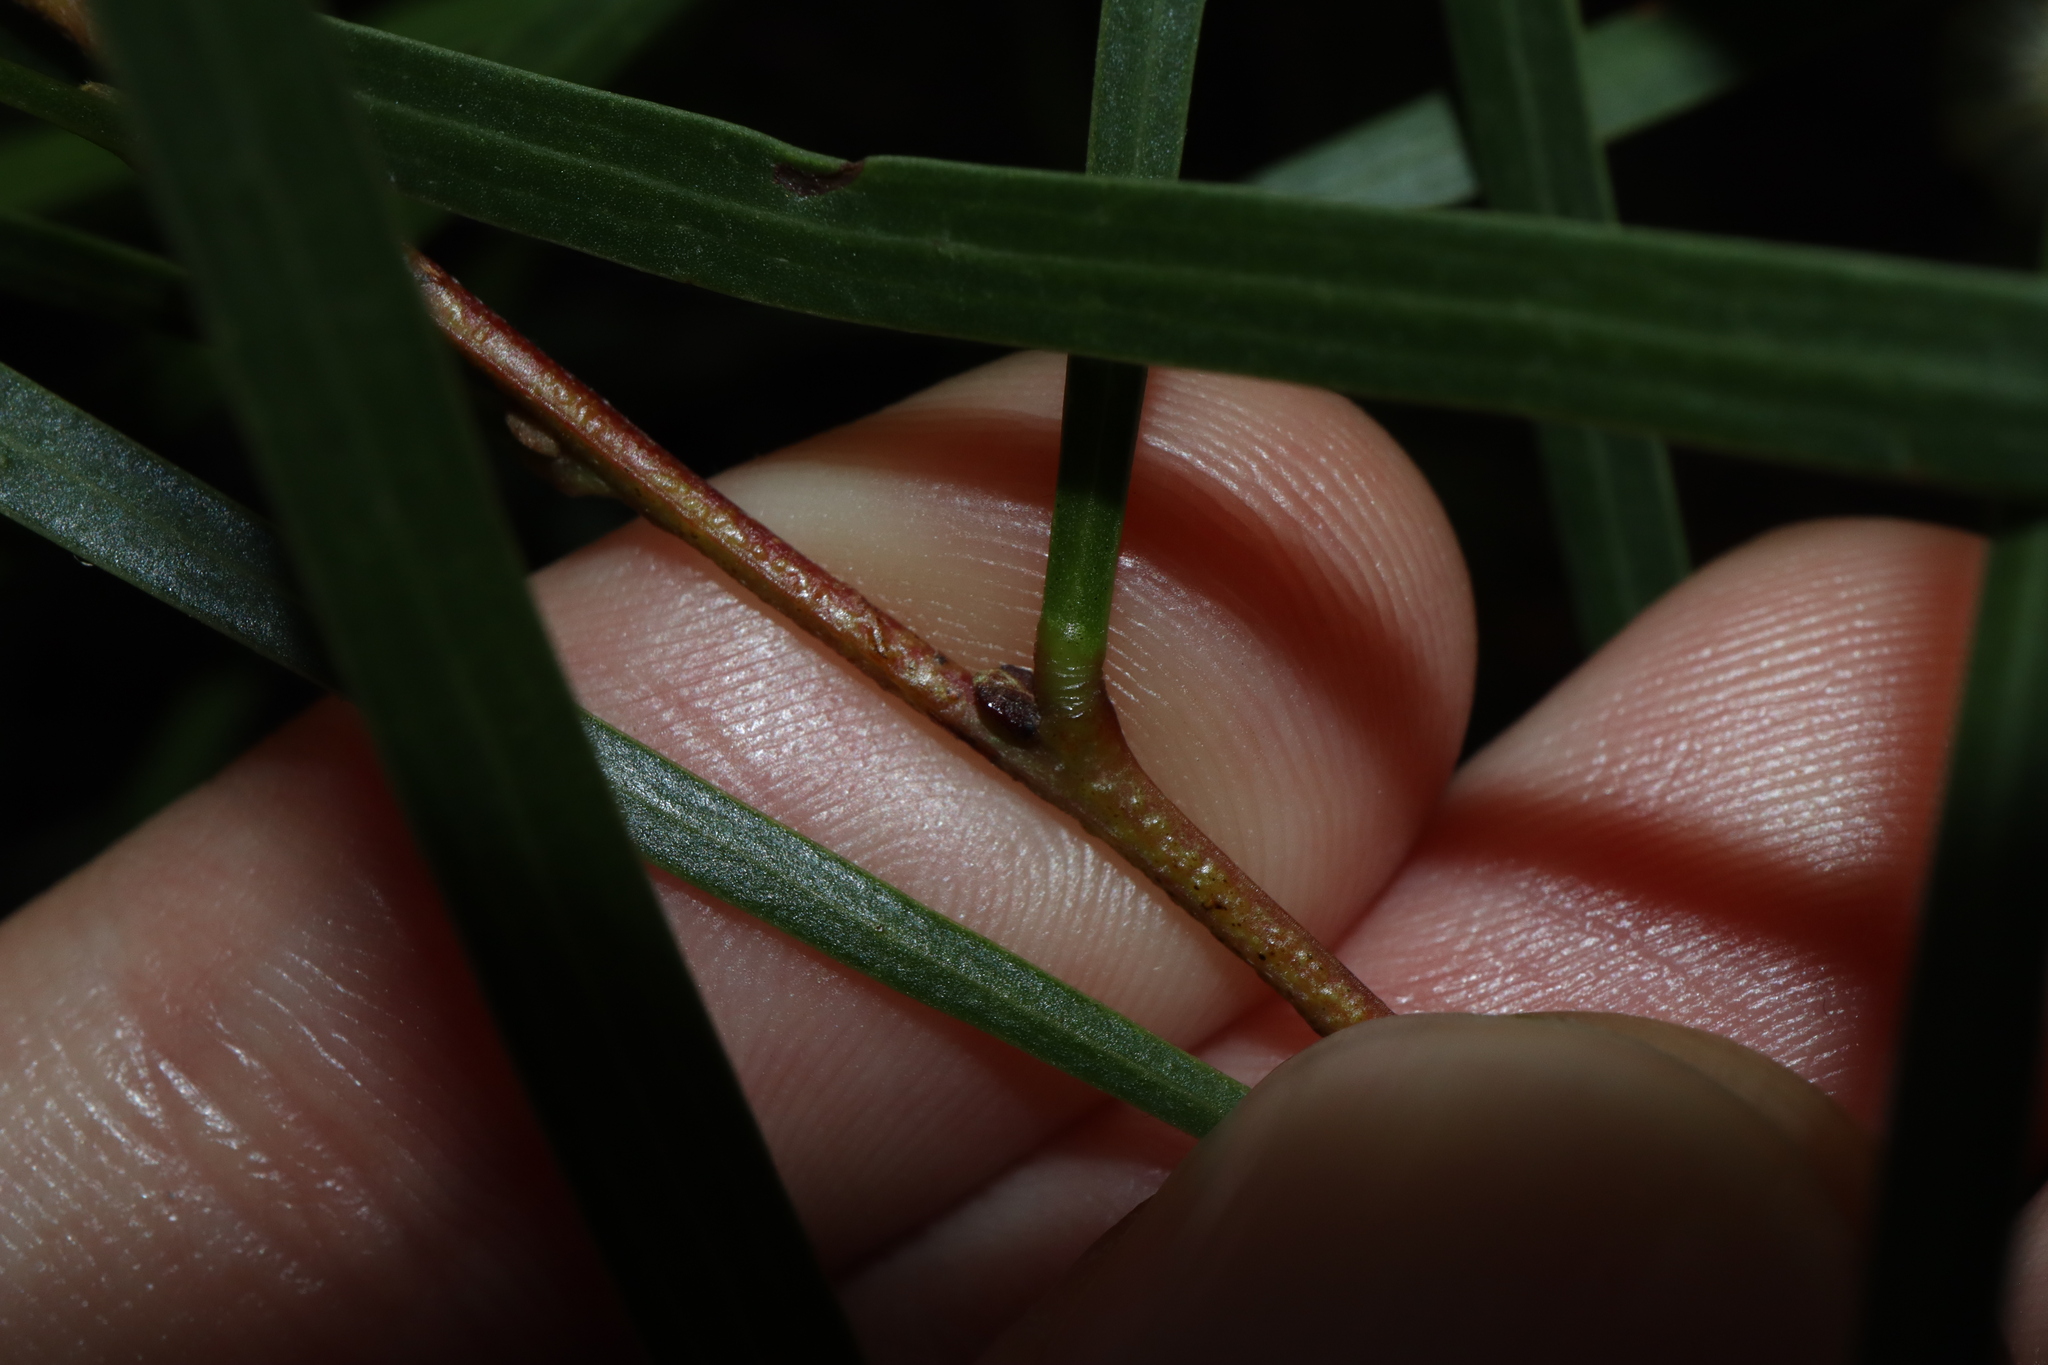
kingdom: Plantae
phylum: Tracheophyta
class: Magnoliopsida
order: Fabales
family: Fabaceae
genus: Acacia
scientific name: Acacia longissima
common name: Longleaf wattle
